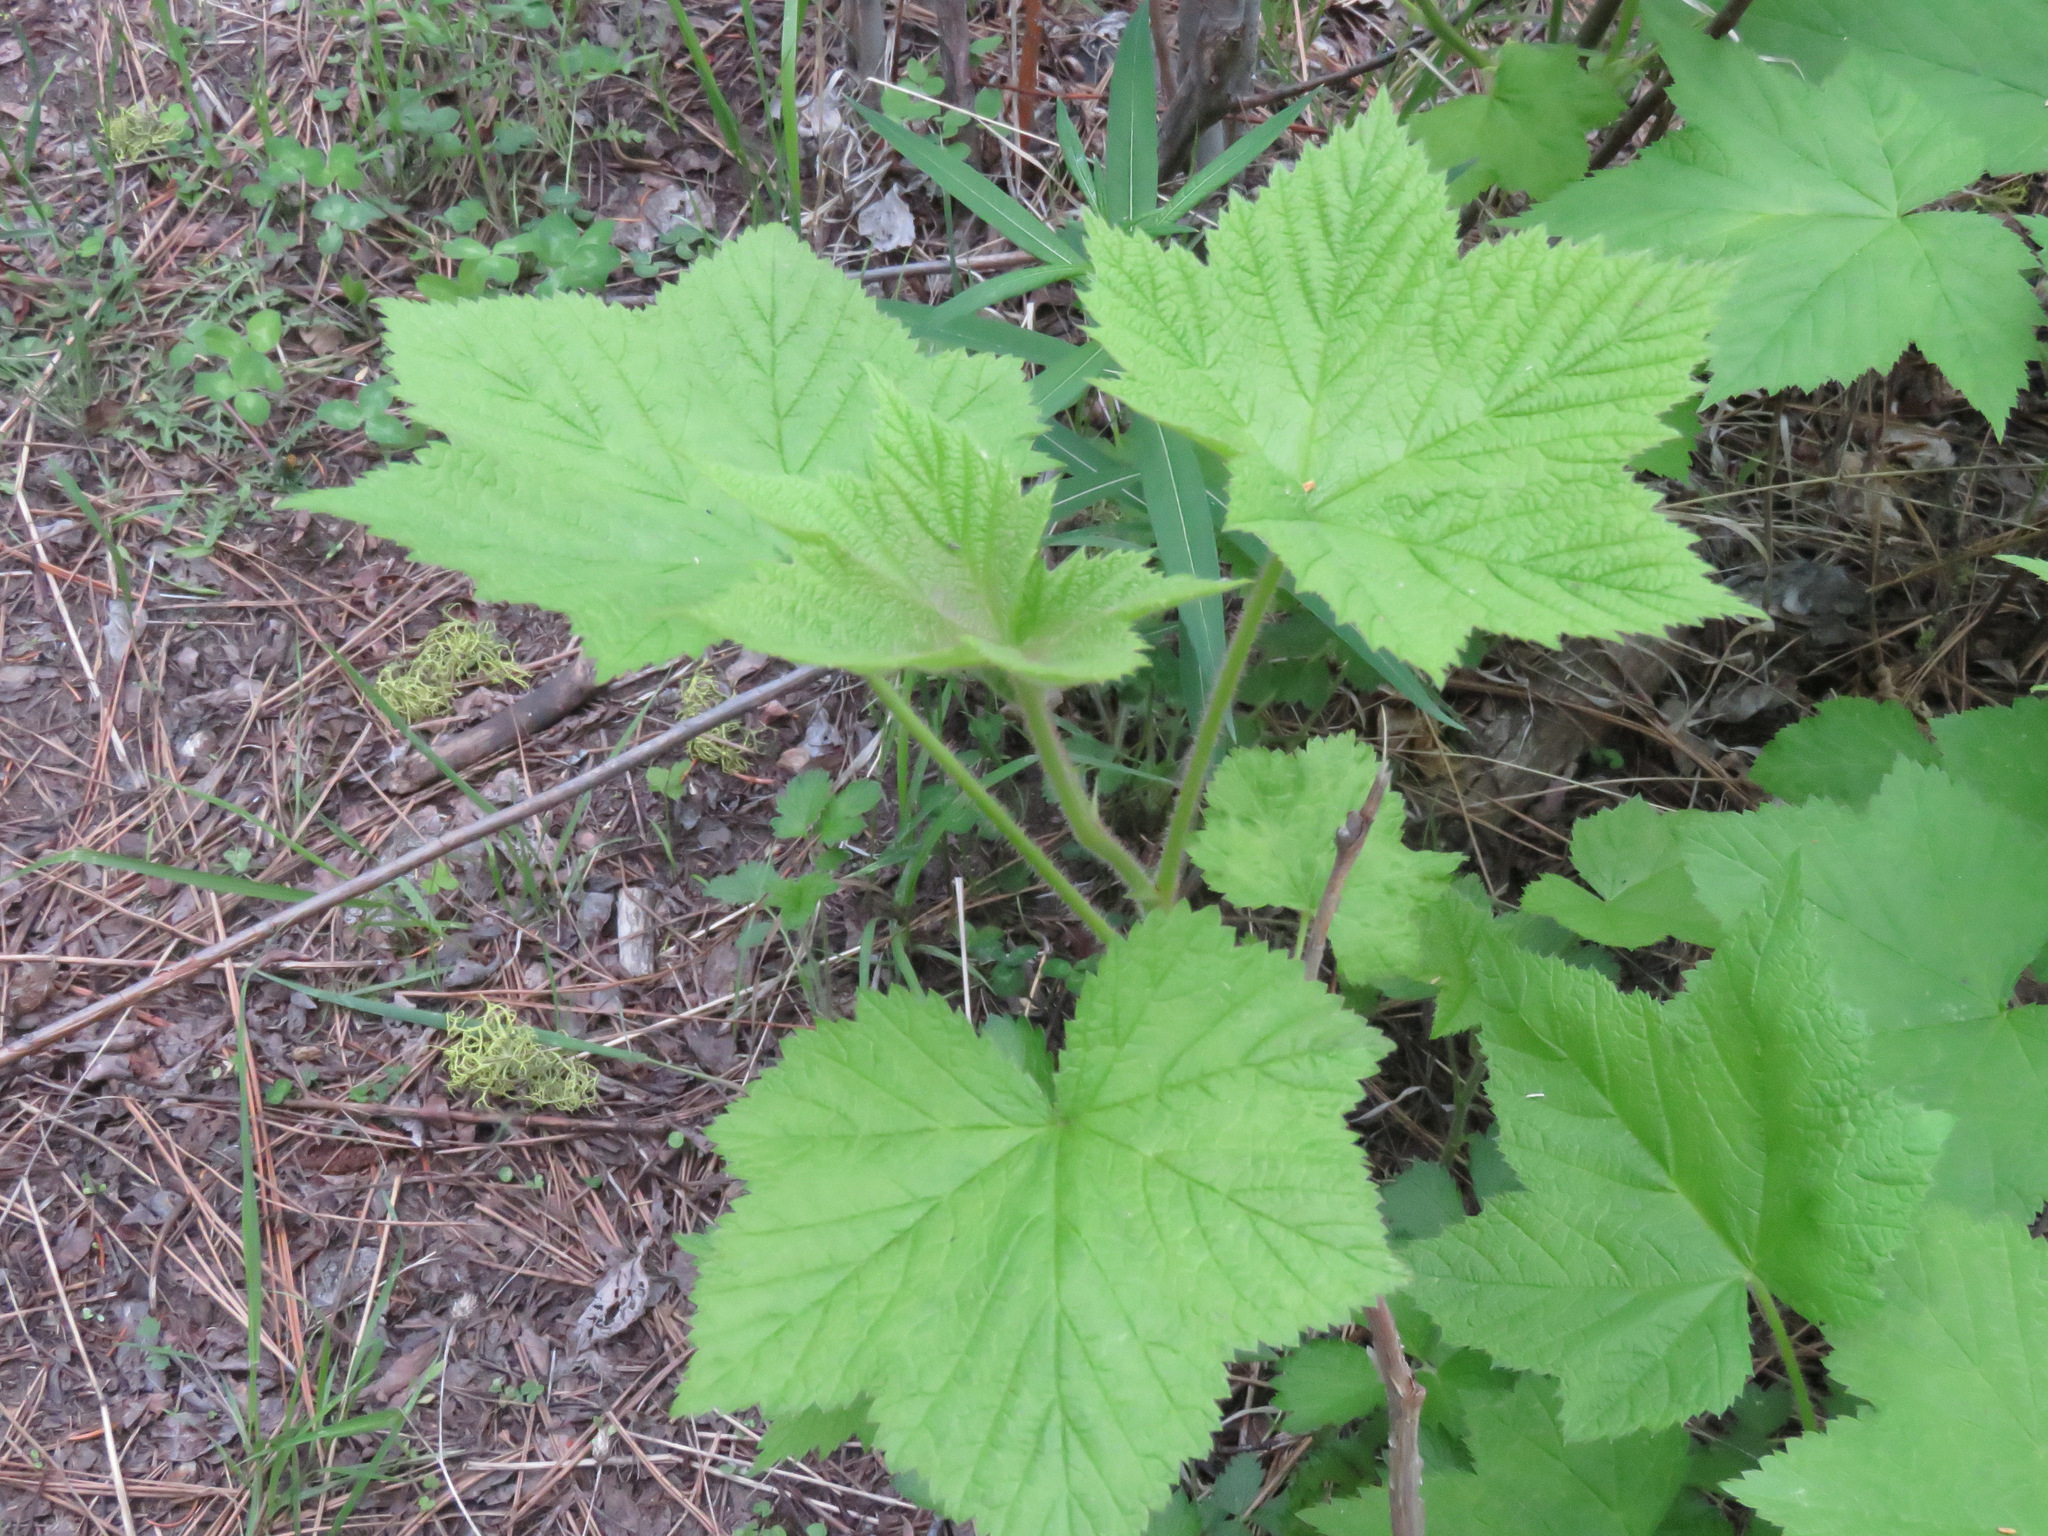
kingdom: Plantae
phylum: Tracheophyta
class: Magnoliopsida
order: Rosales
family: Rosaceae
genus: Rubus
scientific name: Rubus parviflorus
